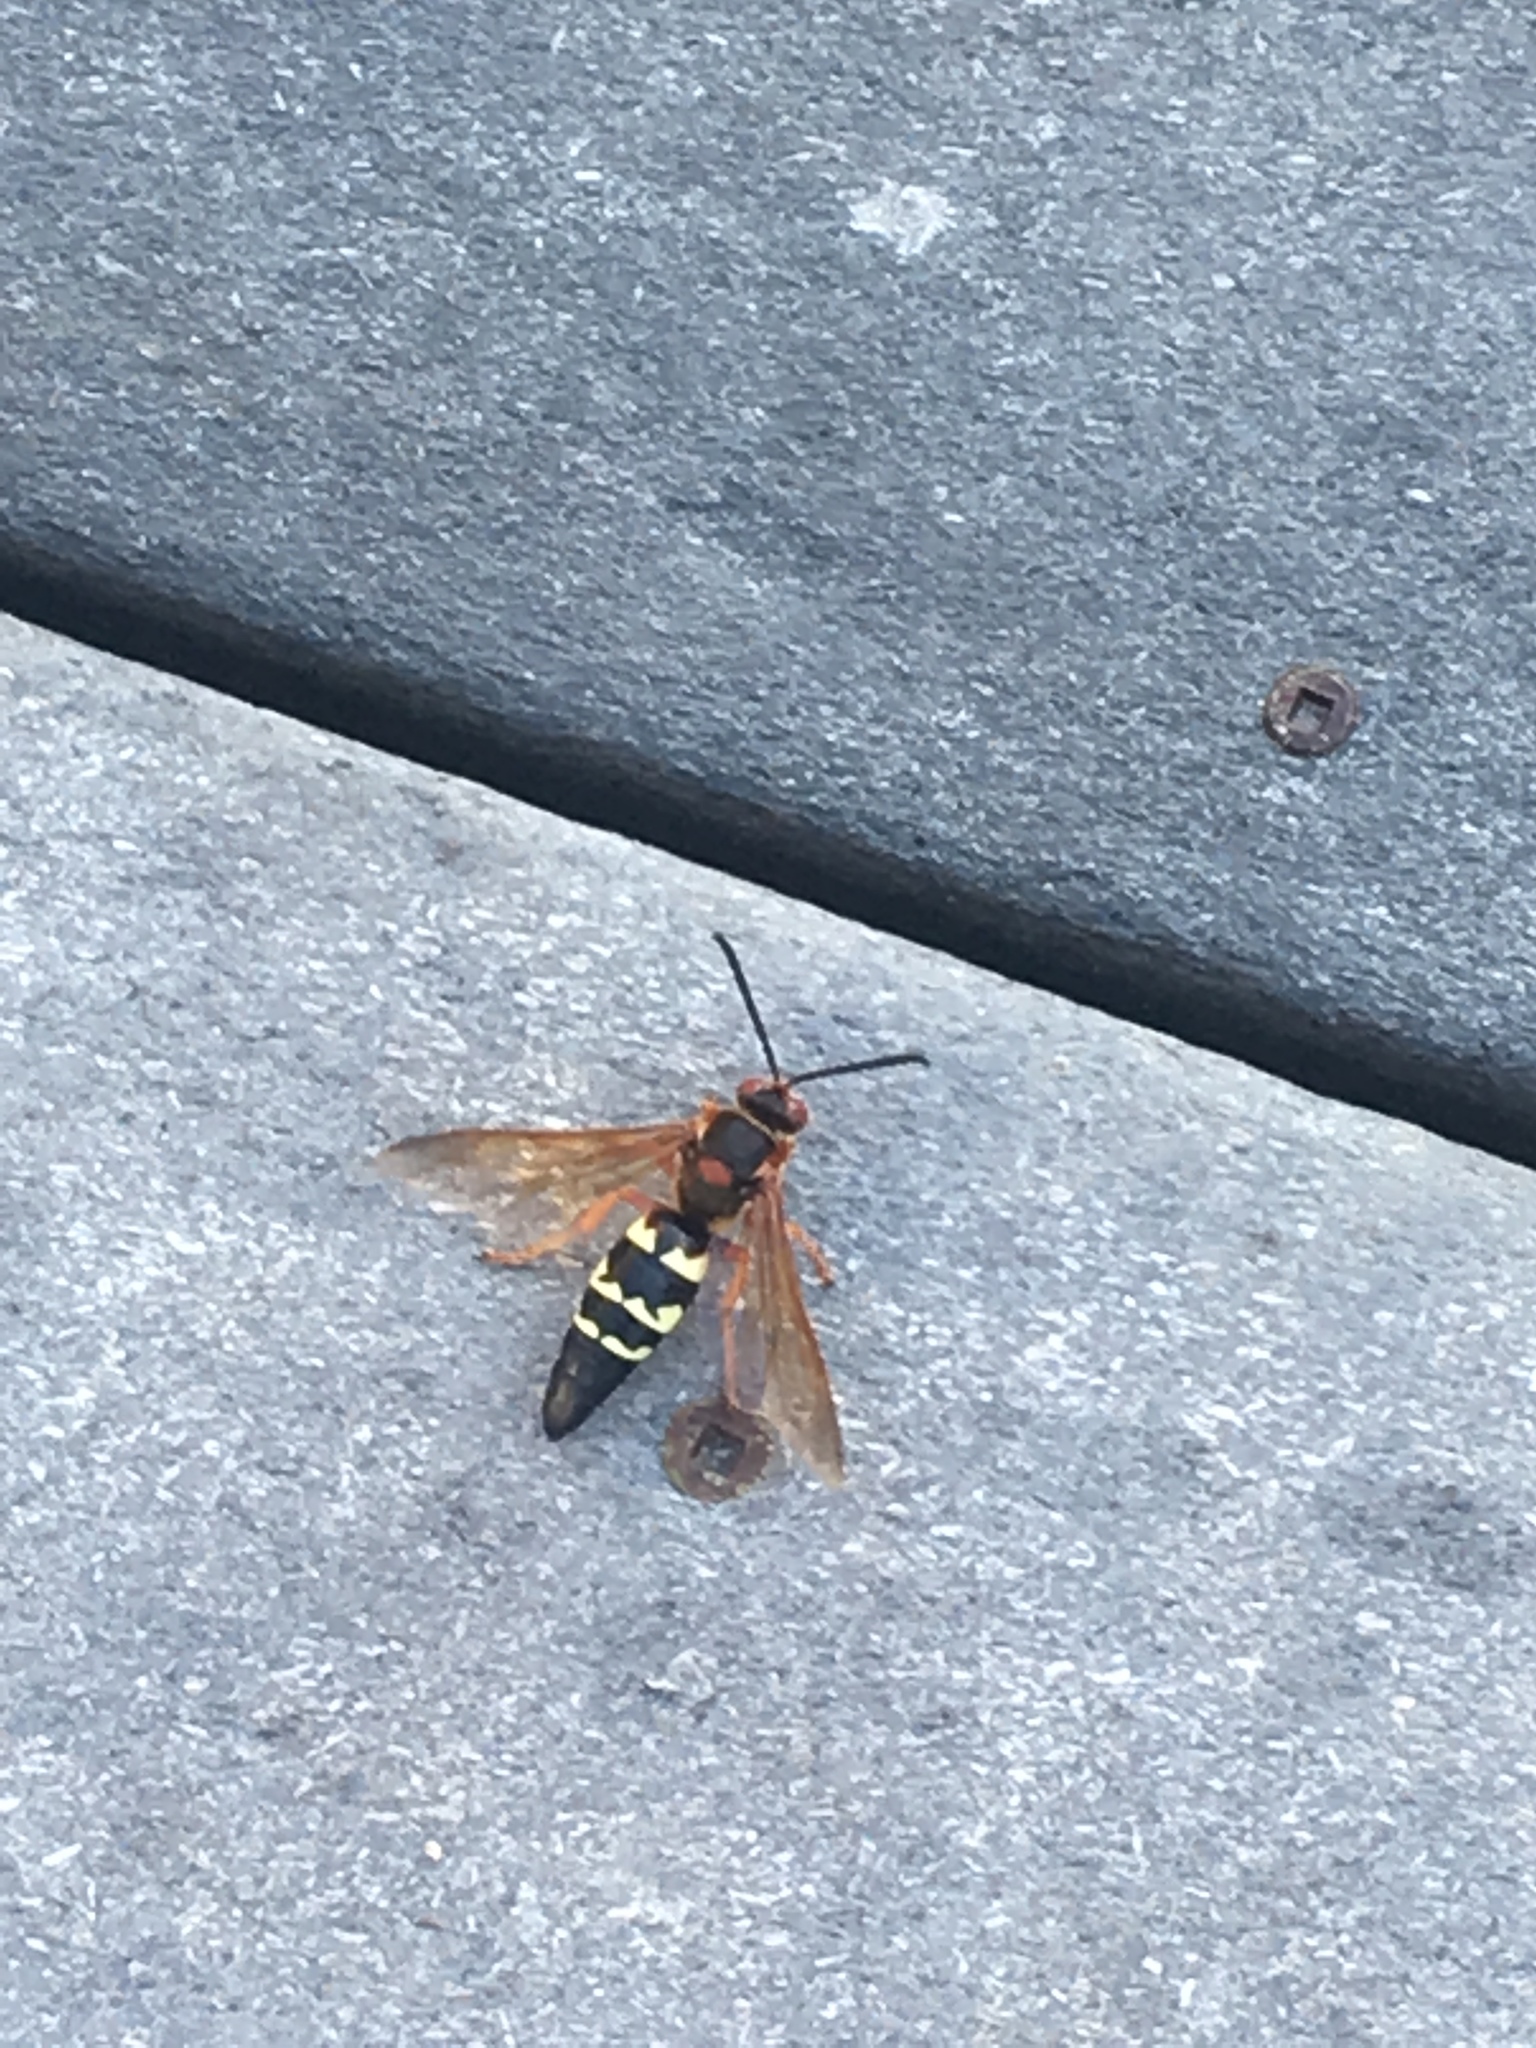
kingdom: Animalia
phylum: Arthropoda
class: Insecta
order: Hymenoptera
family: Crabronidae
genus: Sphecius
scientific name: Sphecius speciosus
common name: Cicada killer
